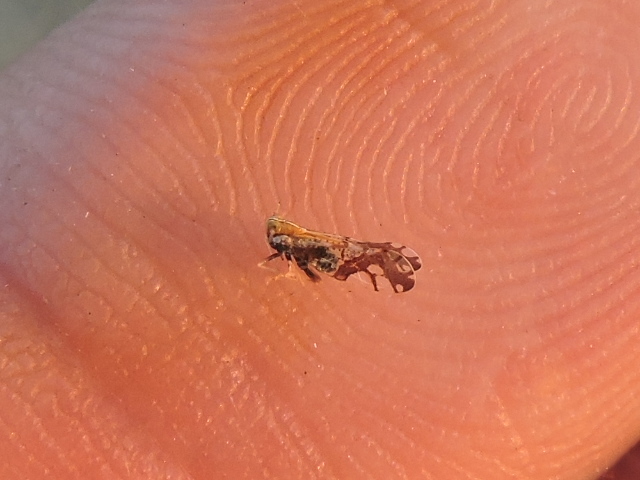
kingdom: Animalia
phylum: Arthropoda
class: Insecta
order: Hemiptera
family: Delphacidae
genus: Liburniella
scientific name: Liburniella ornata
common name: Ornate planthopper
